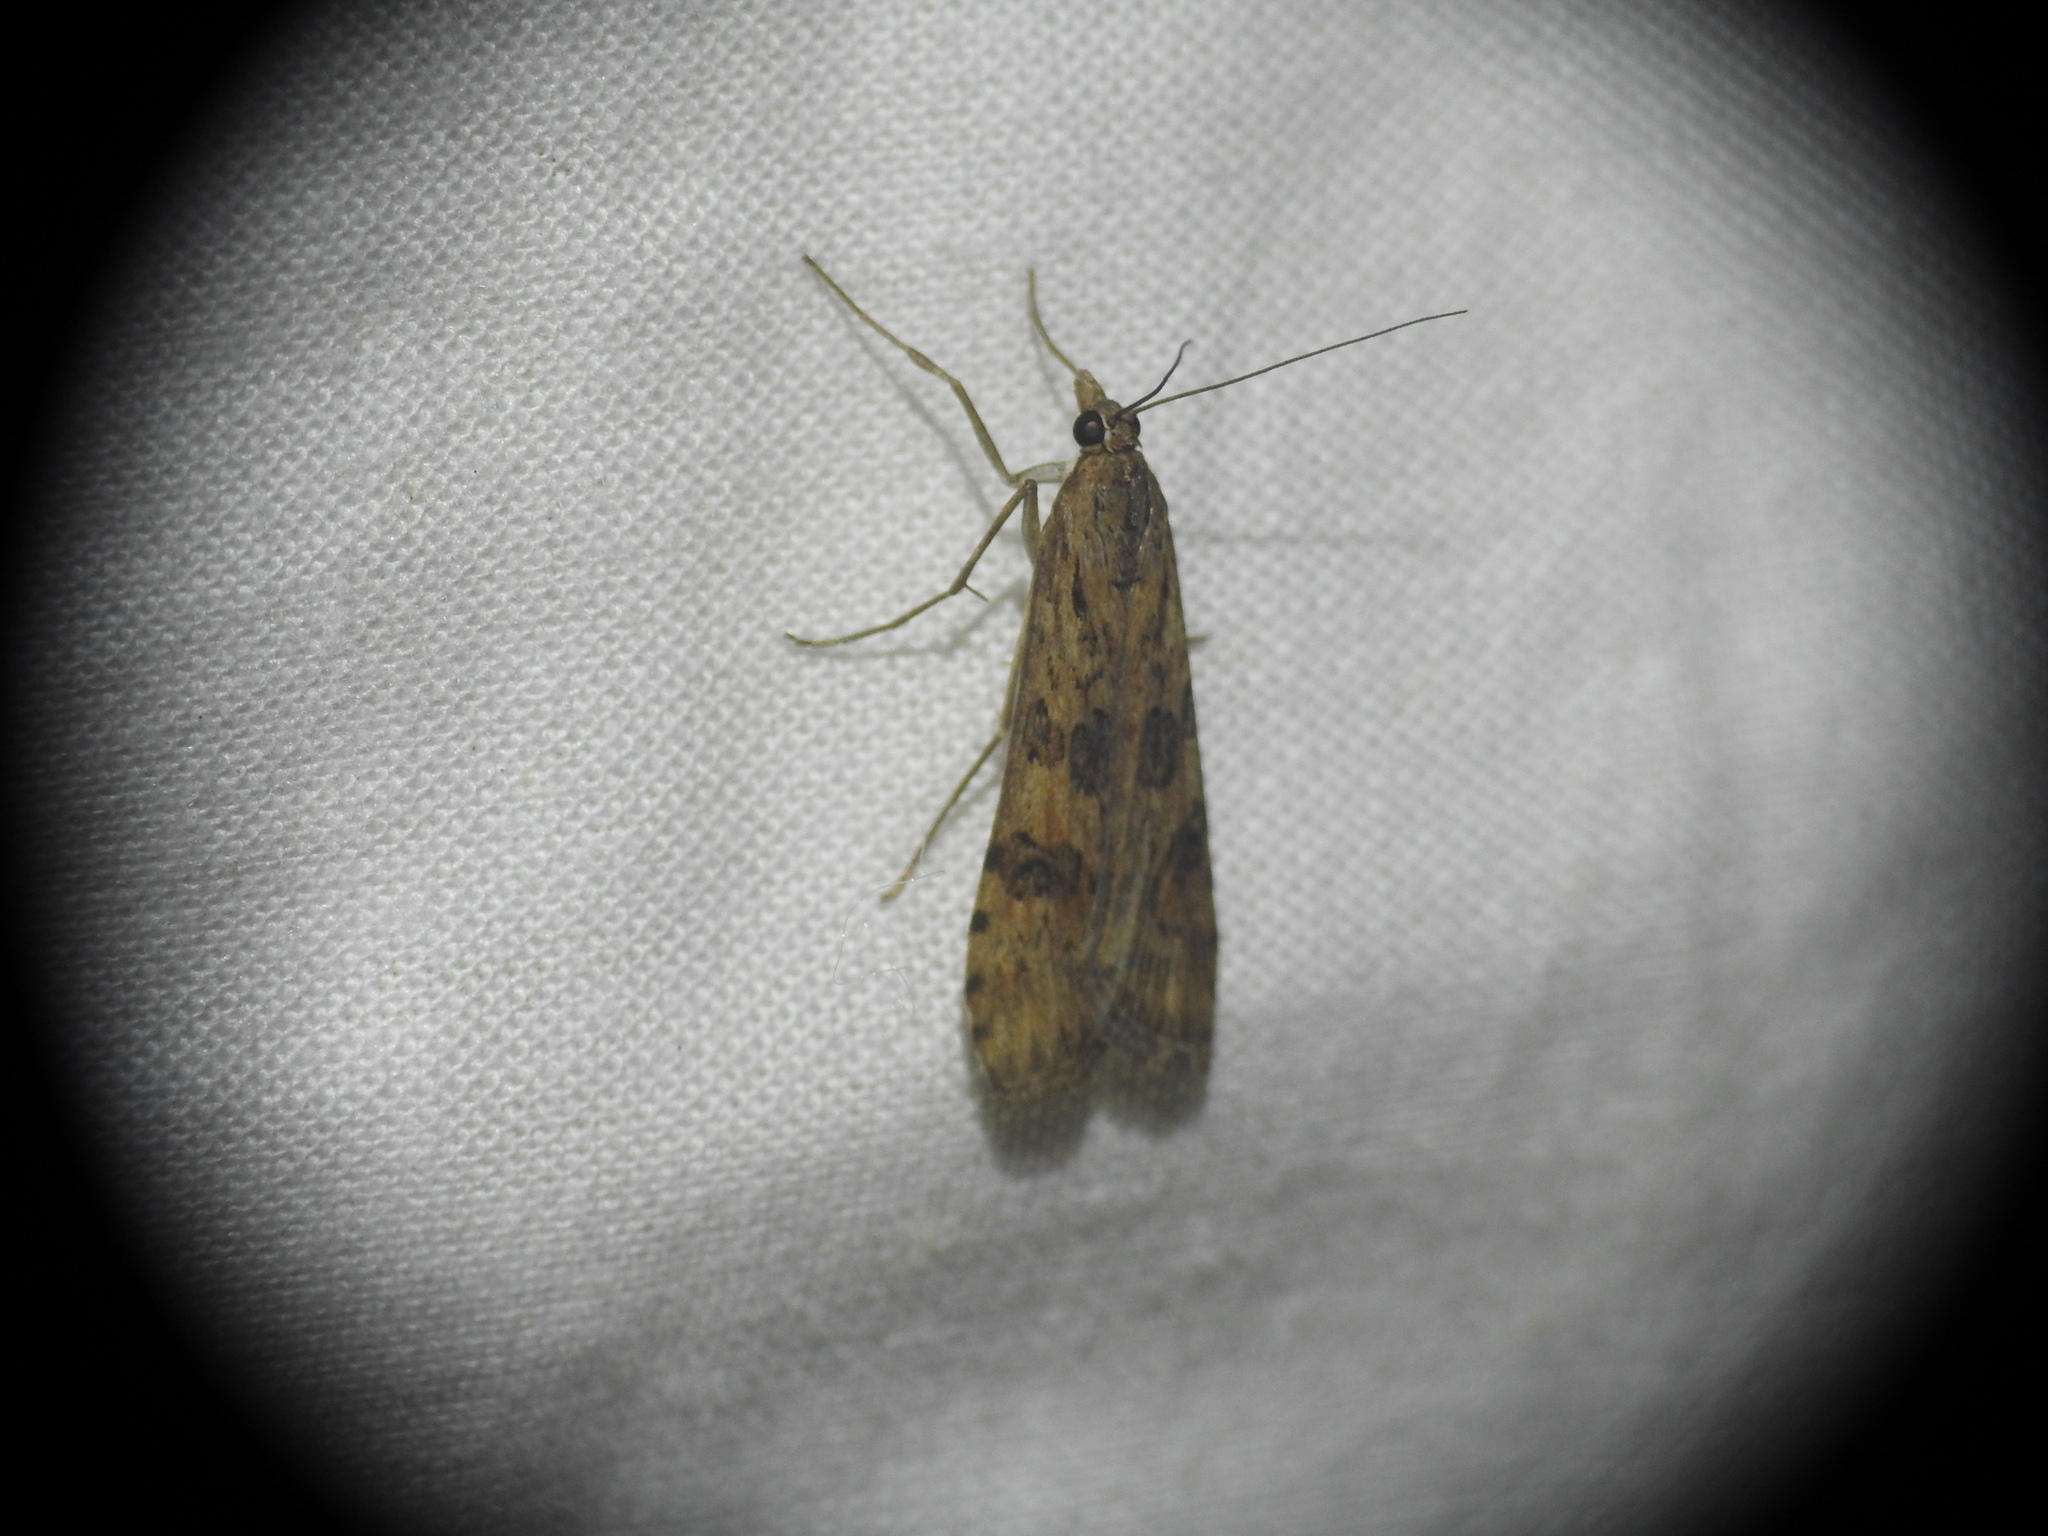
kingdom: Animalia
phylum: Arthropoda
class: Insecta
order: Lepidoptera
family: Crambidae
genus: Nomophila
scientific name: Nomophila noctuella
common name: Rush veneer
